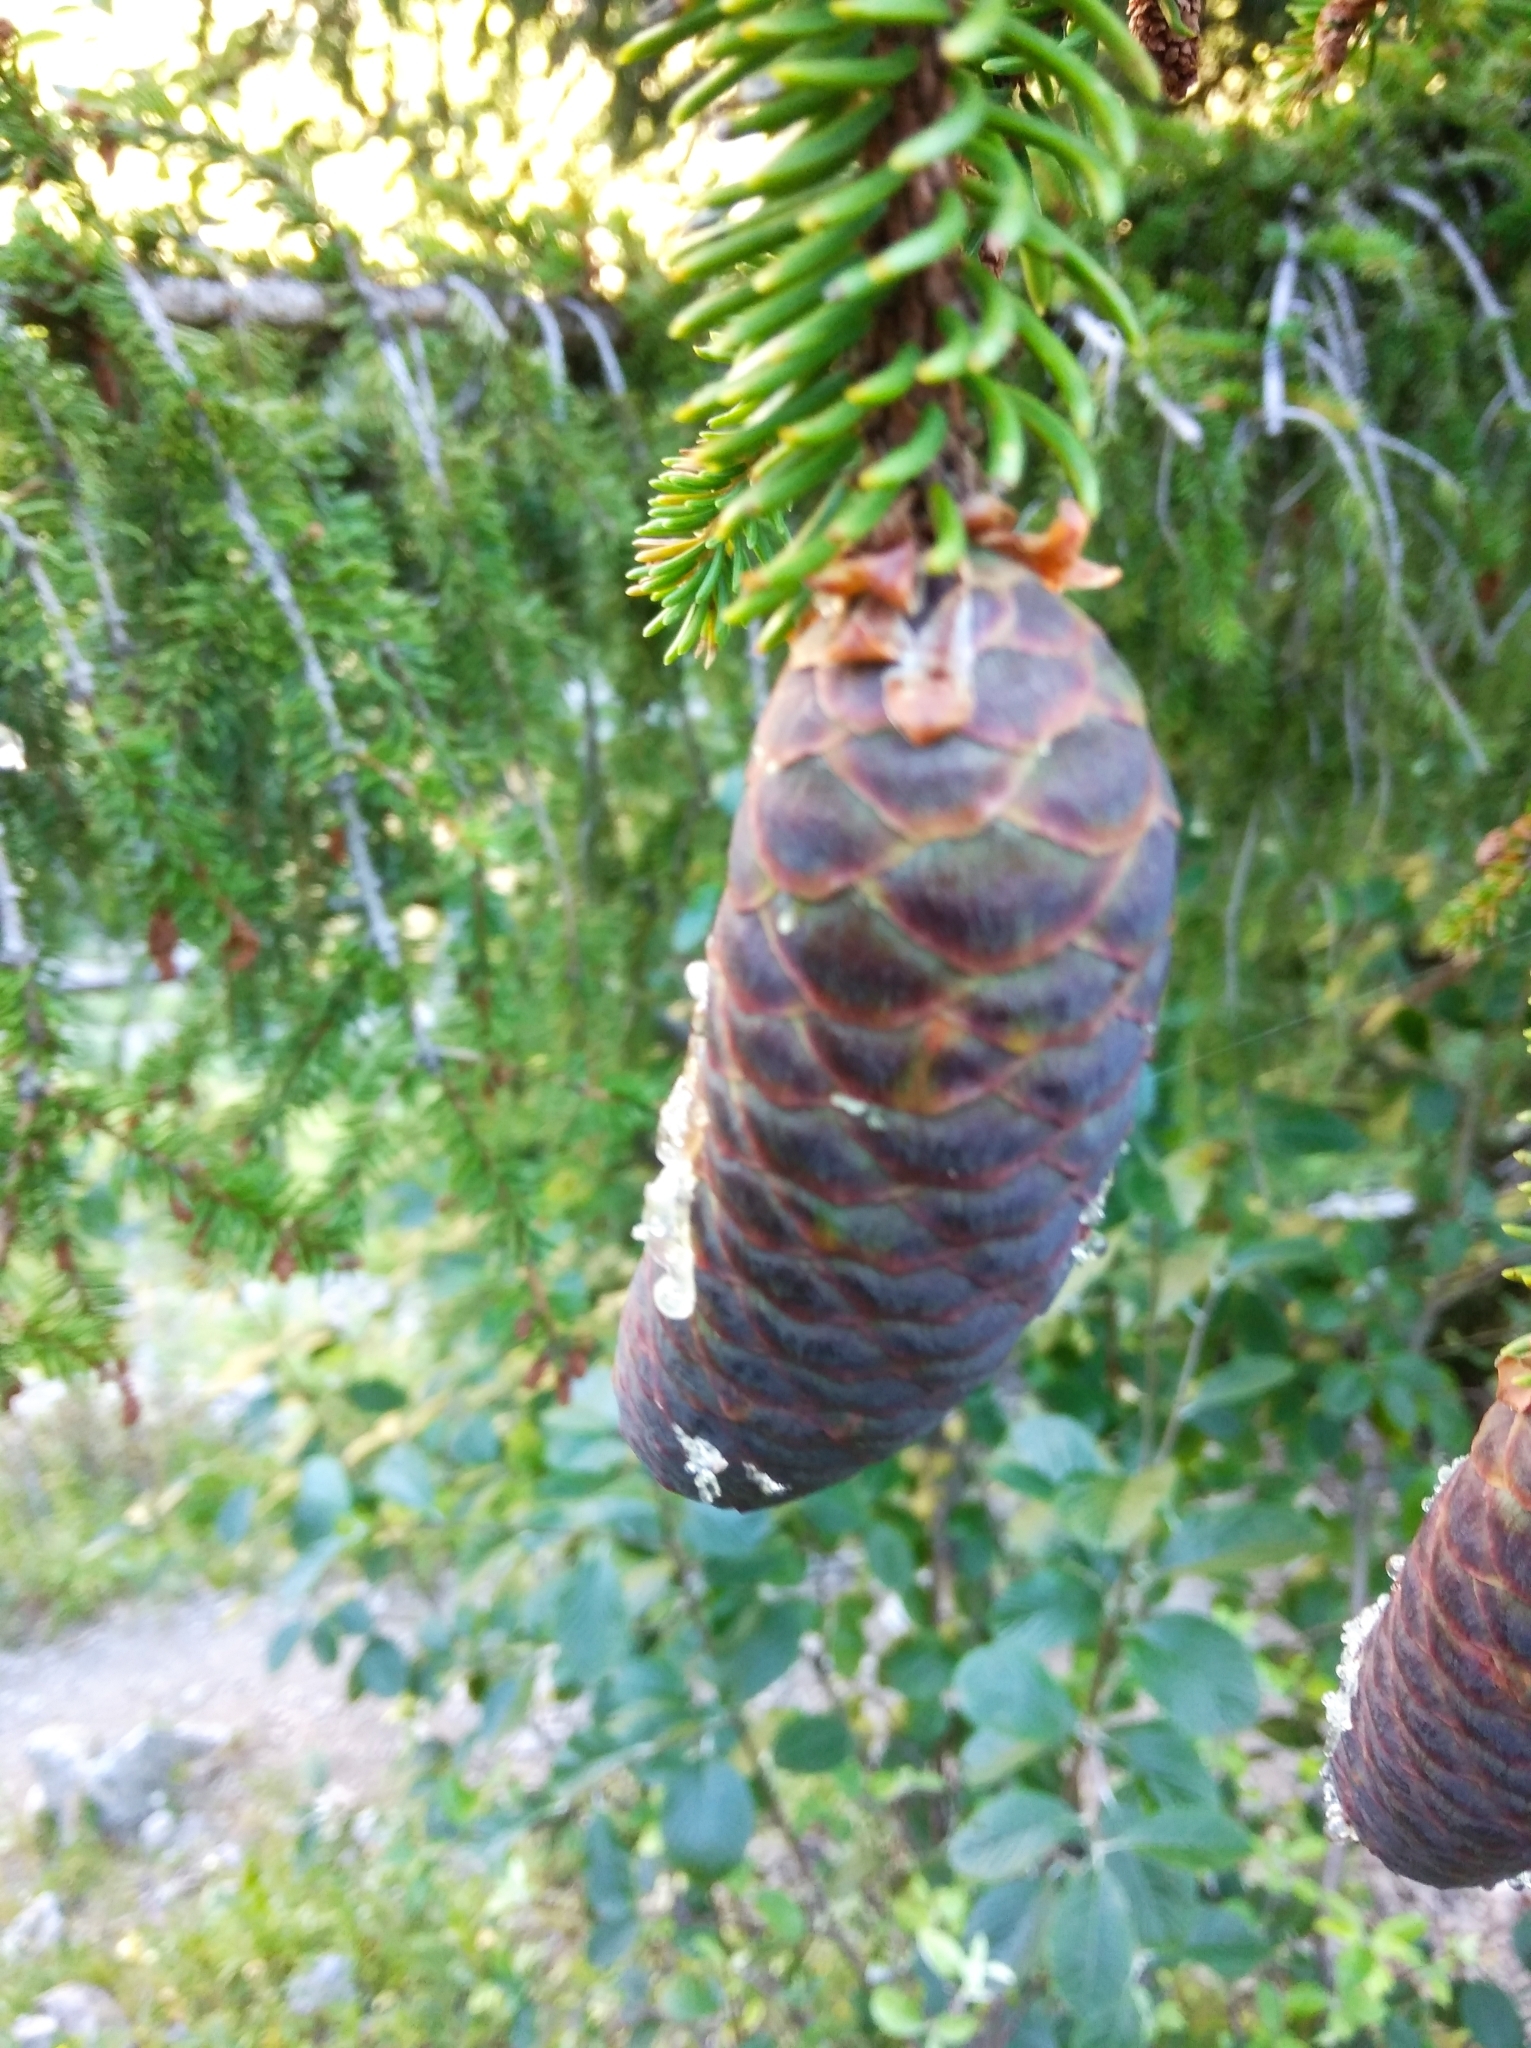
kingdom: Plantae
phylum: Tracheophyta
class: Pinopsida
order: Pinales
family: Pinaceae
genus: Picea
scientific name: Picea abies
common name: Norway spruce
